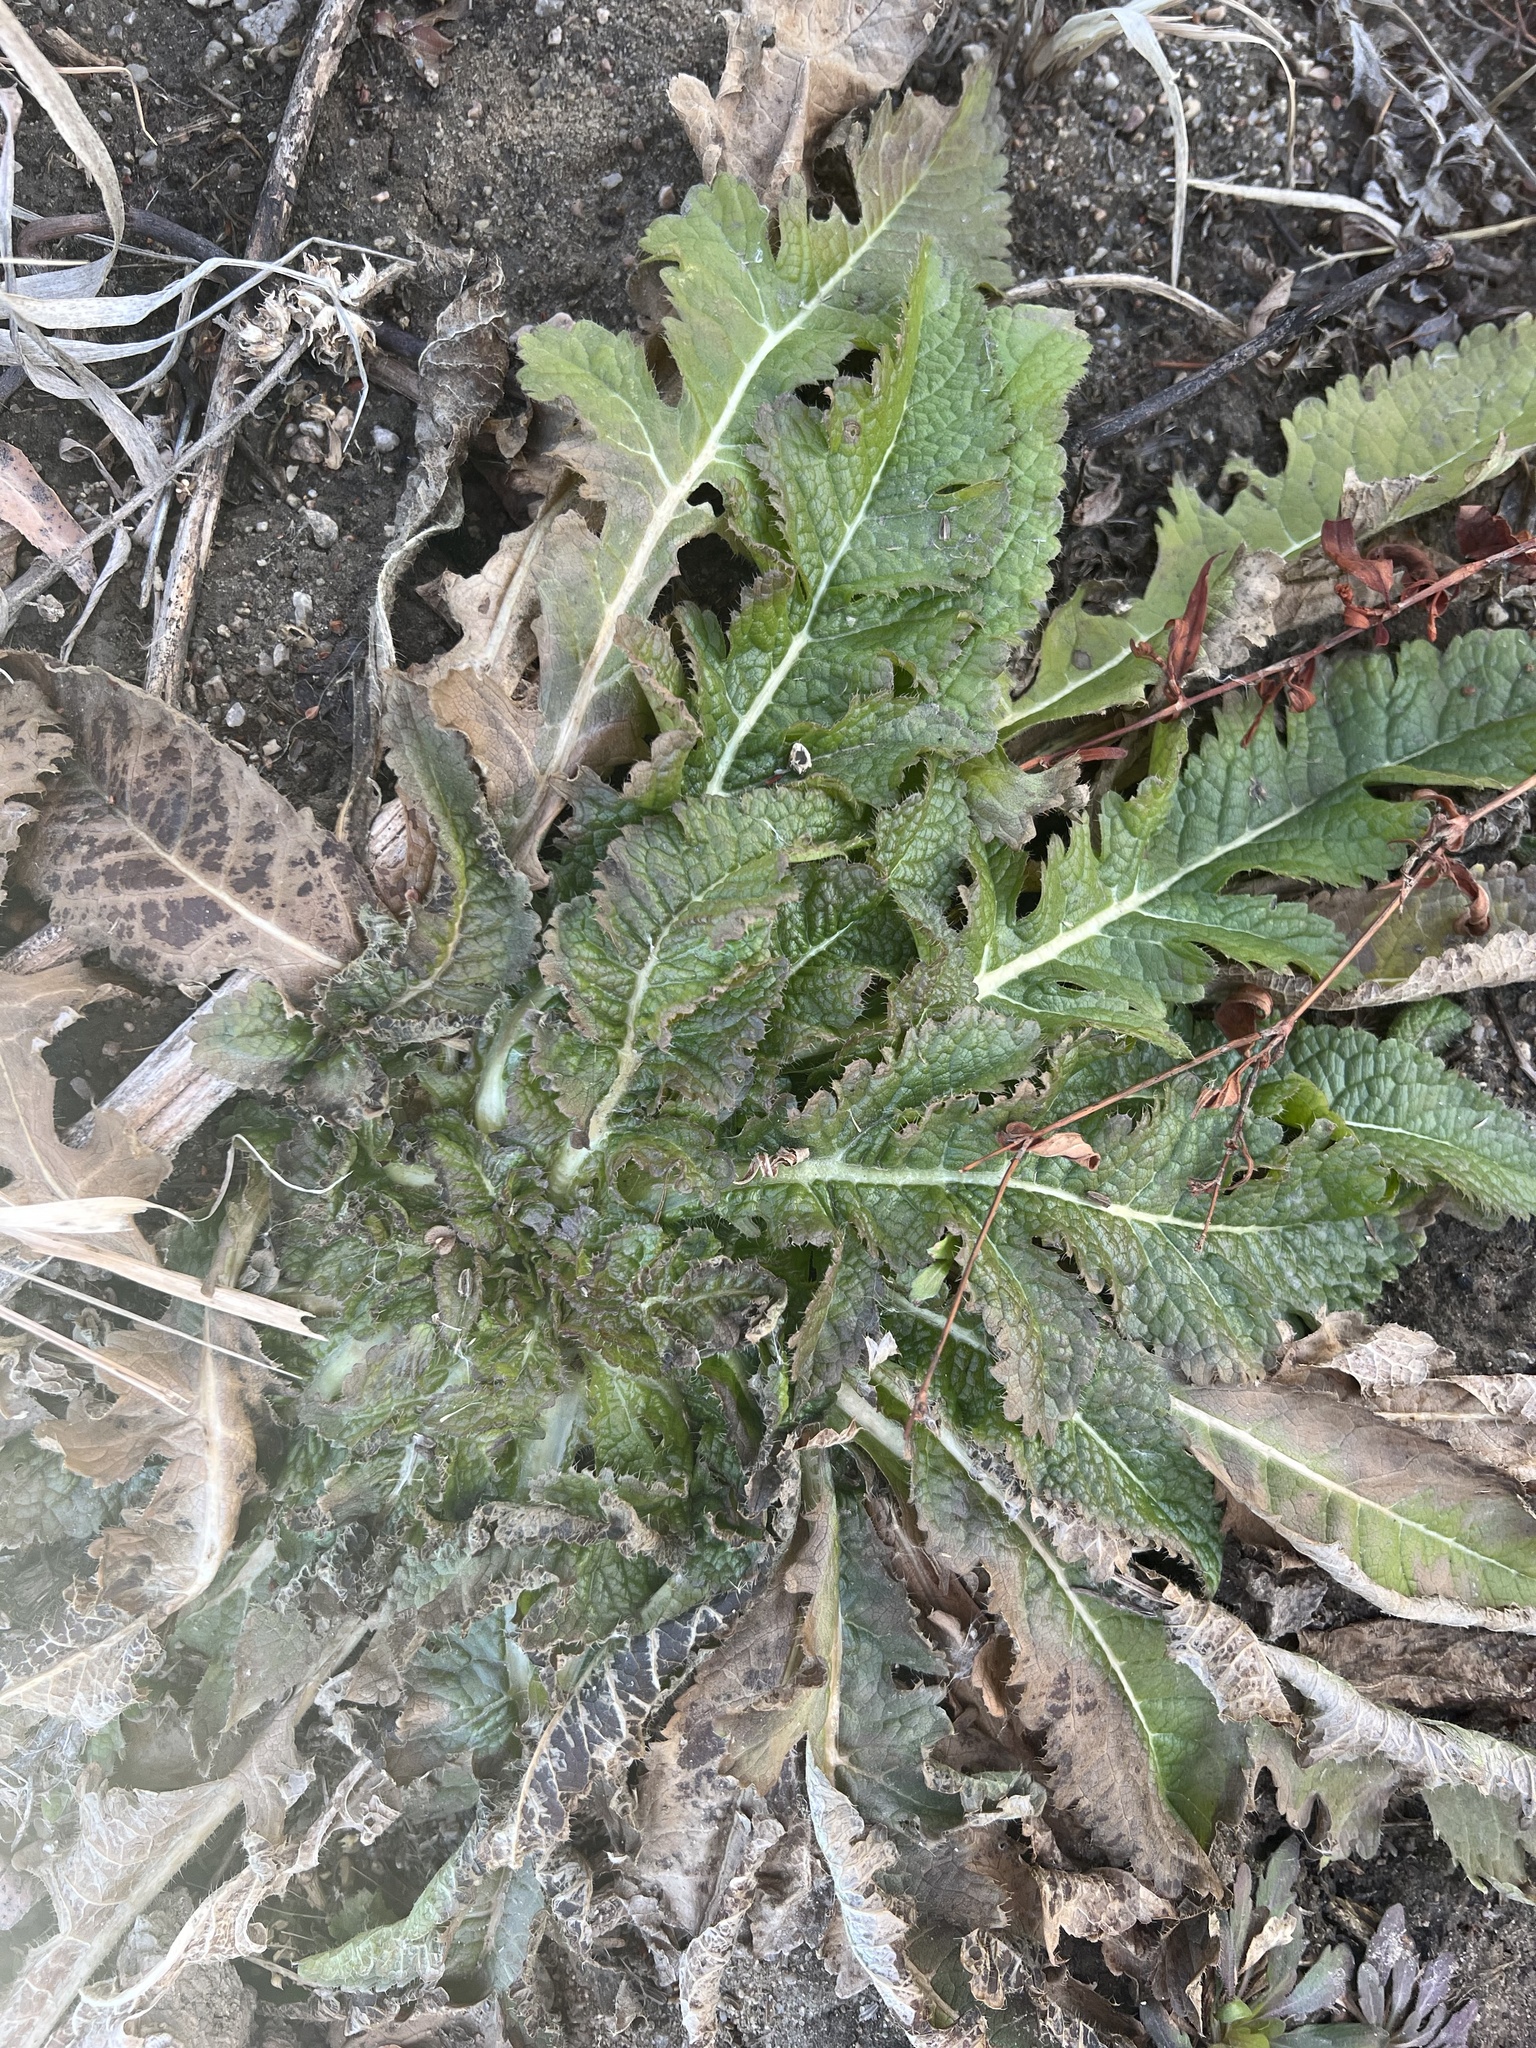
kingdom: Plantae
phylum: Tracheophyta
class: Magnoliopsida
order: Dipsacales
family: Caprifoliaceae
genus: Dipsacus
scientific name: Dipsacus laciniatus
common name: Cut-leaved teasel
